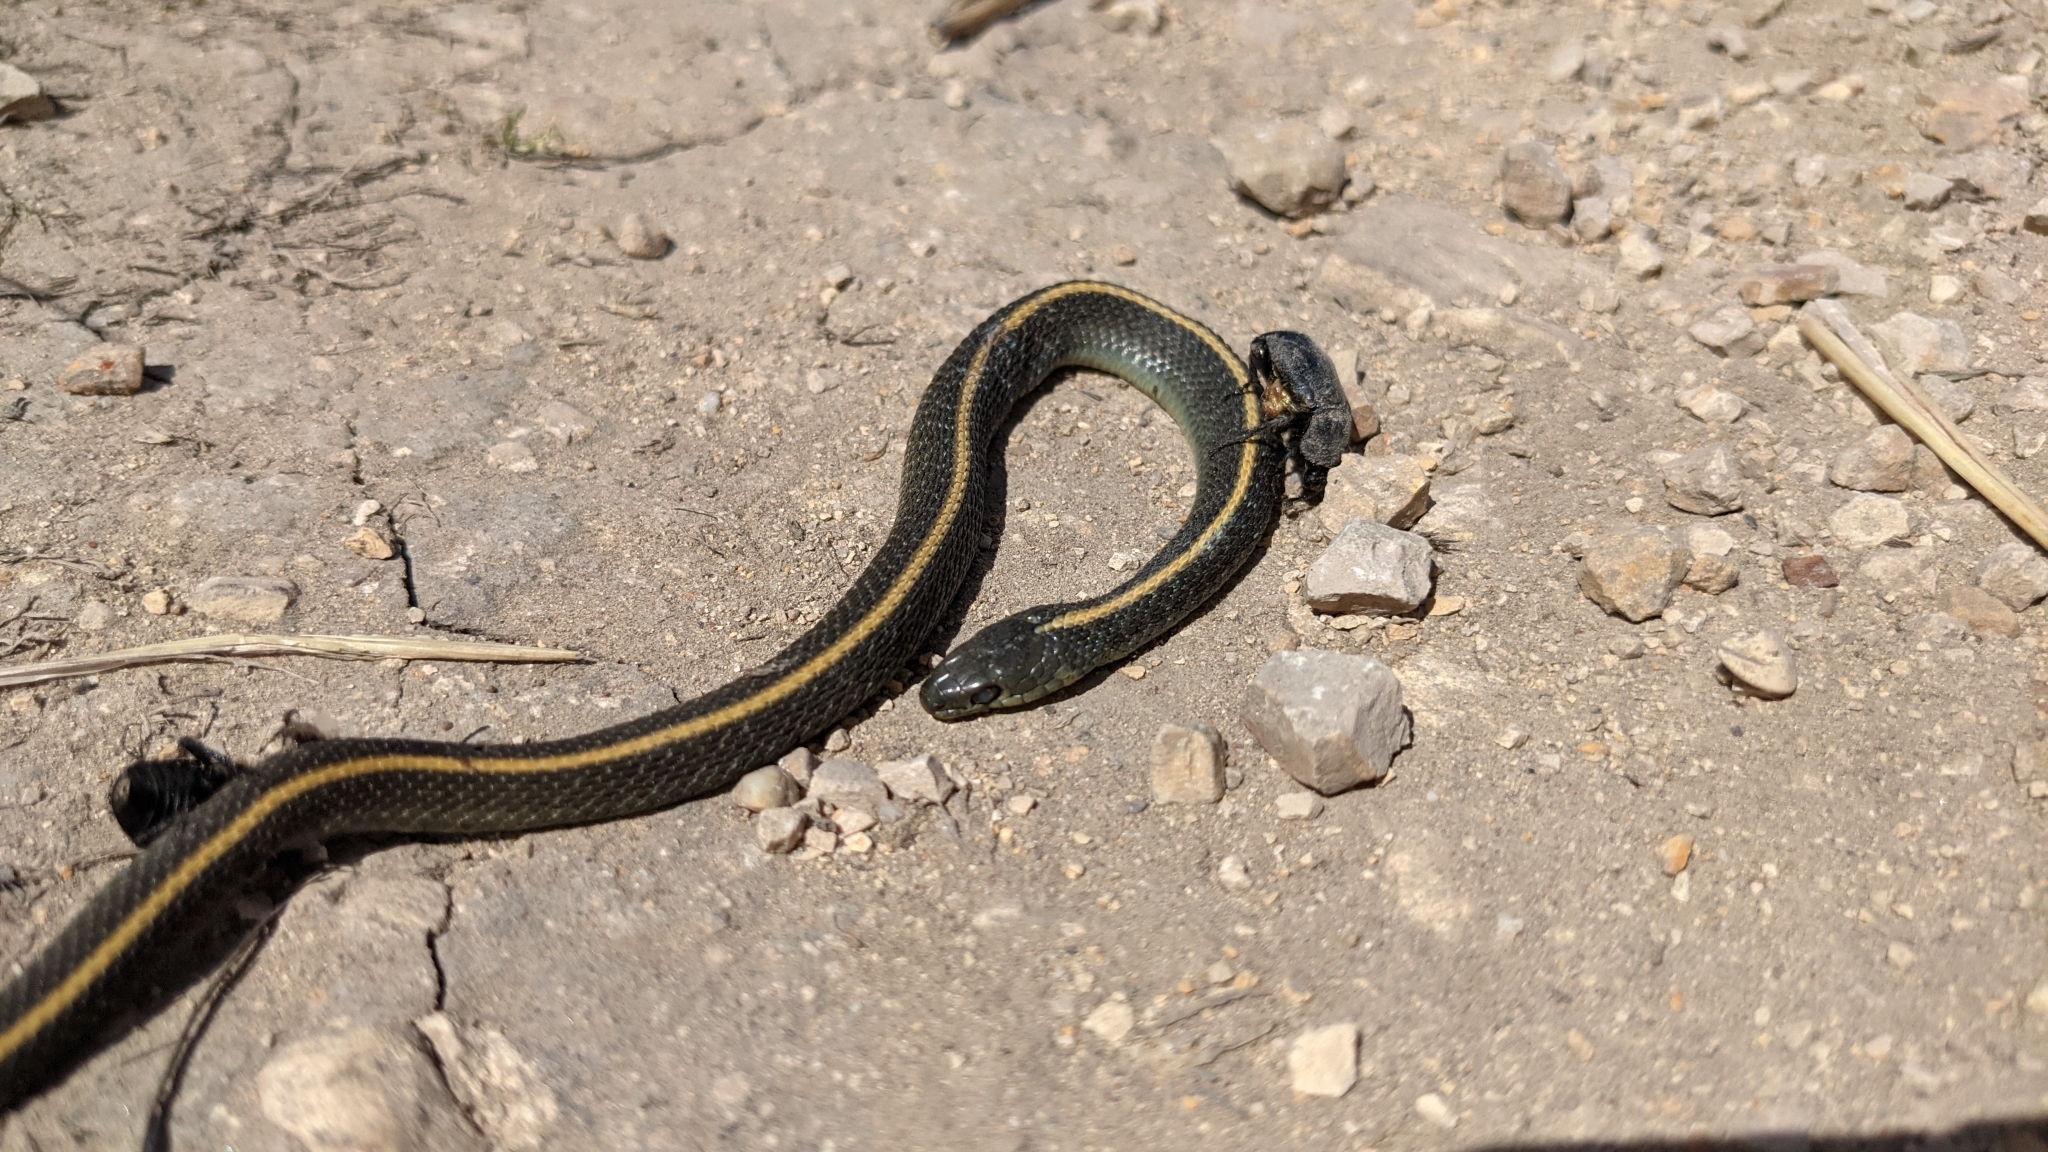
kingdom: Animalia
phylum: Chordata
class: Squamata
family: Colubridae
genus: Thamnophis
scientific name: Thamnophis atratus
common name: Pacific coast aquatic garter snake
